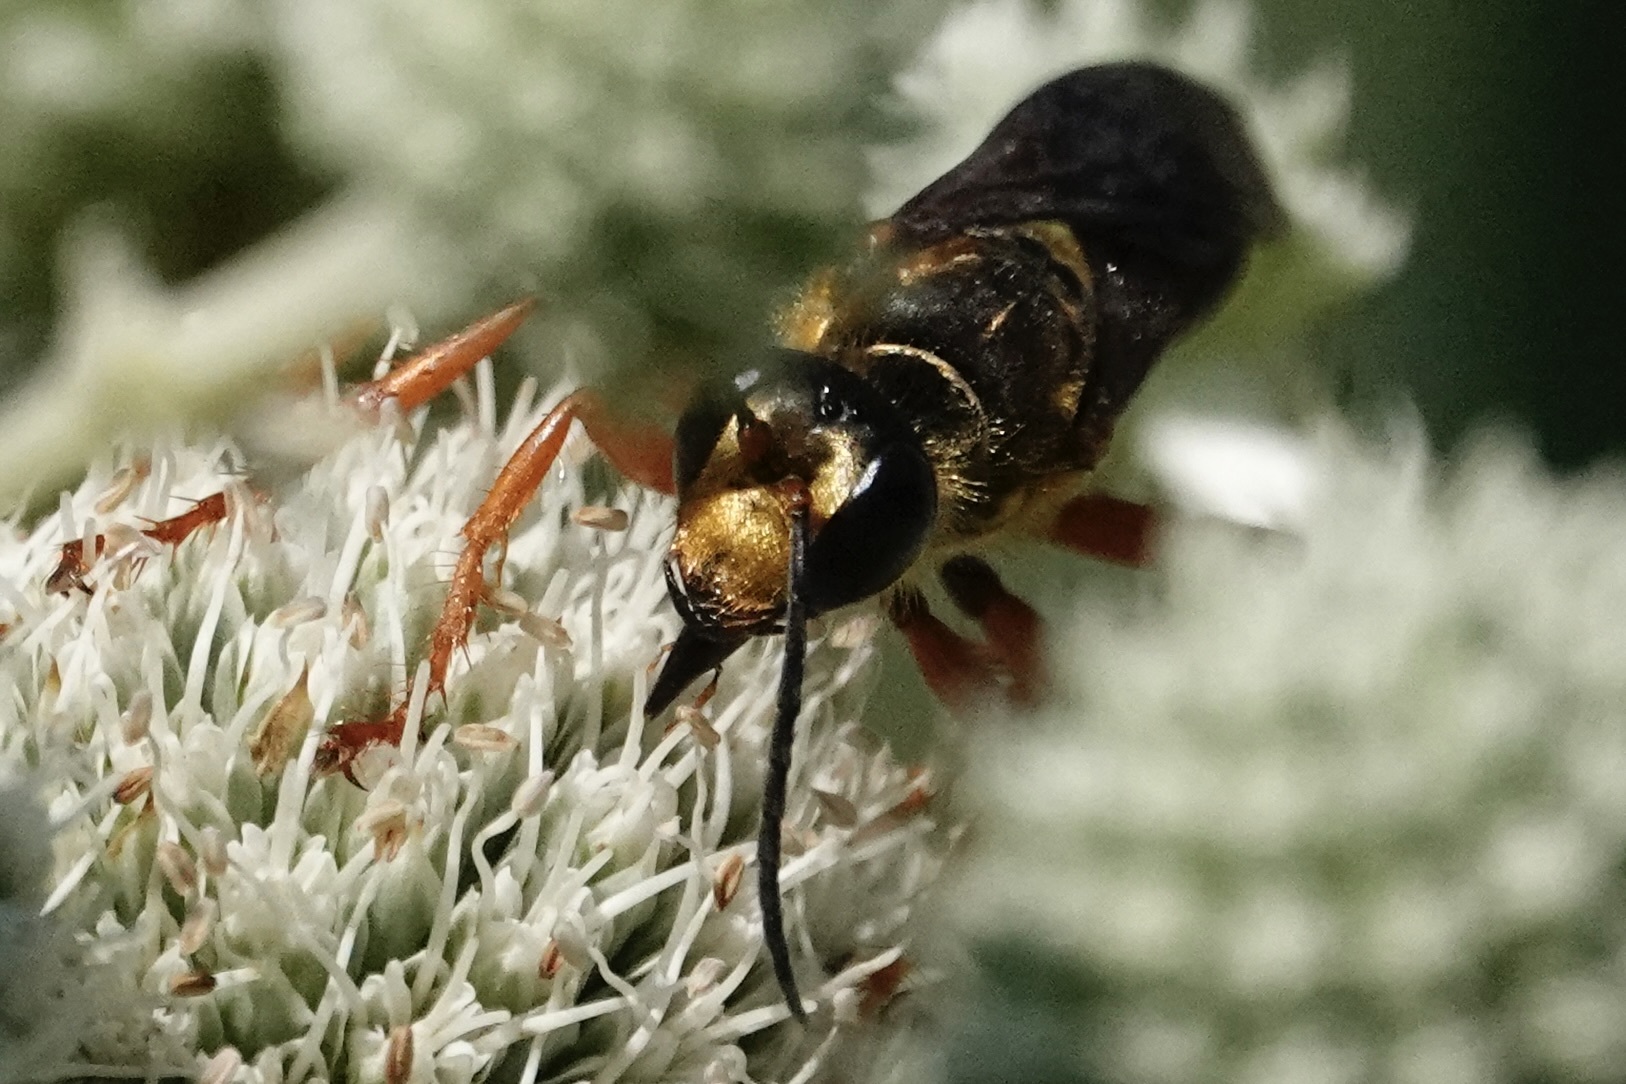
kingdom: Animalia
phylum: Arthropoda
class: Insecta
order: Hymenoptera
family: Sphecidae
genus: Sphex
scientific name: Sphex ichneumoneus
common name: Great golden digger wasp
